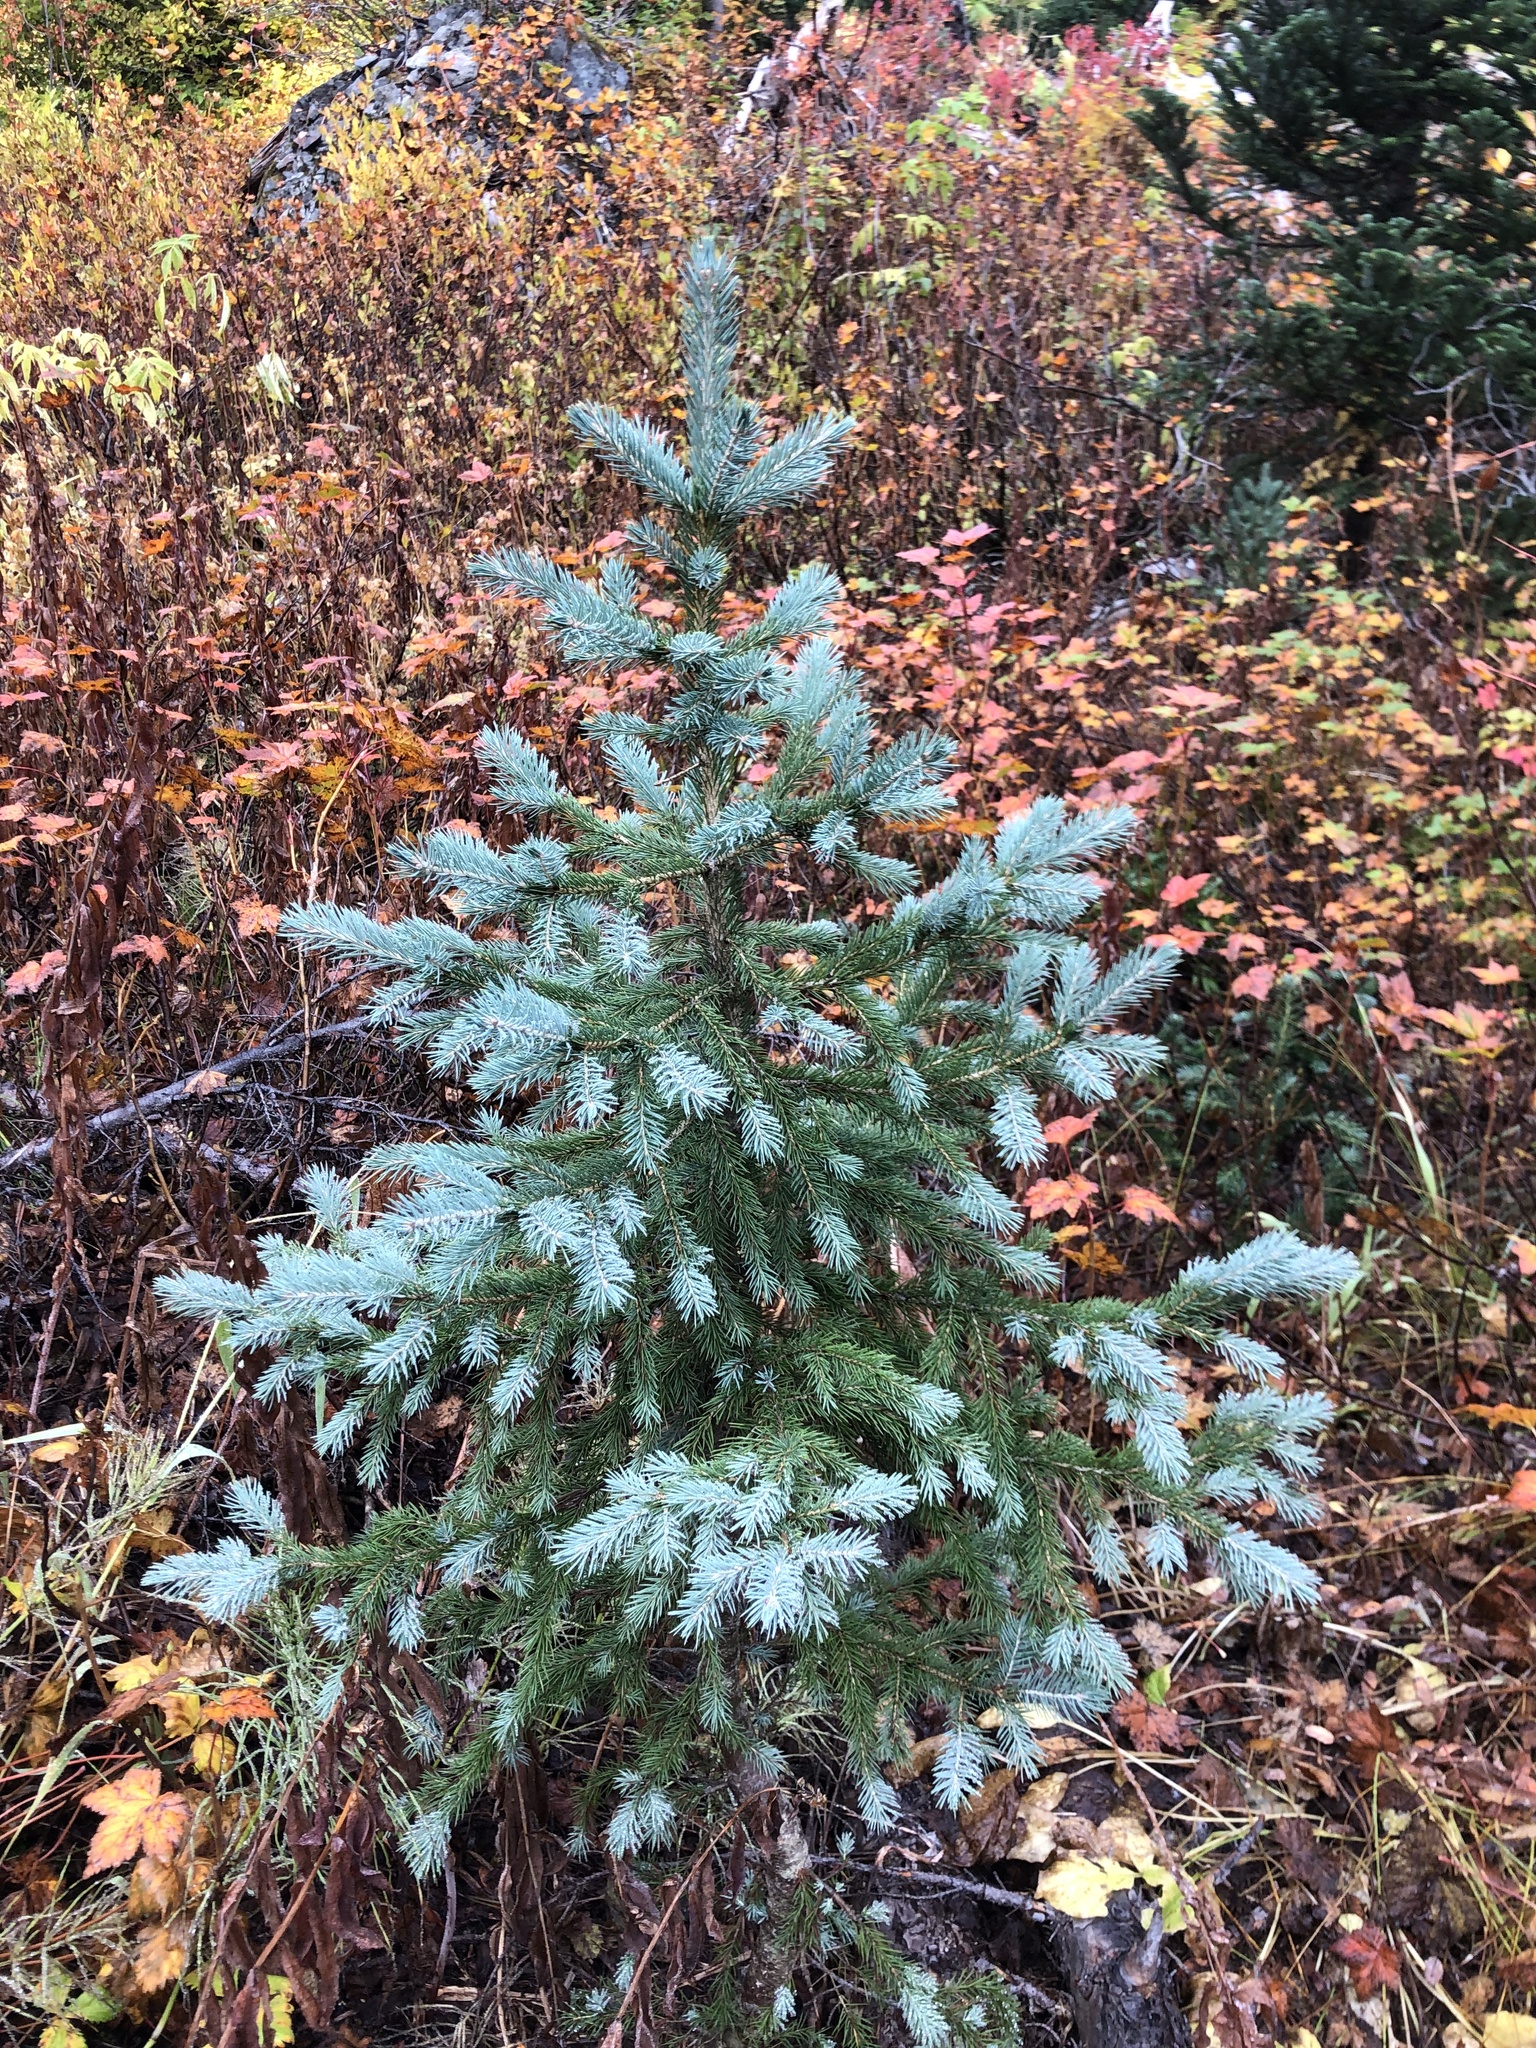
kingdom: Plantae
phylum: Tracheophyta
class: Pinopsida
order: Pinales
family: Pinaceae
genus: Picea
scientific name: Picea engelmannii
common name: Engelmann spruce
